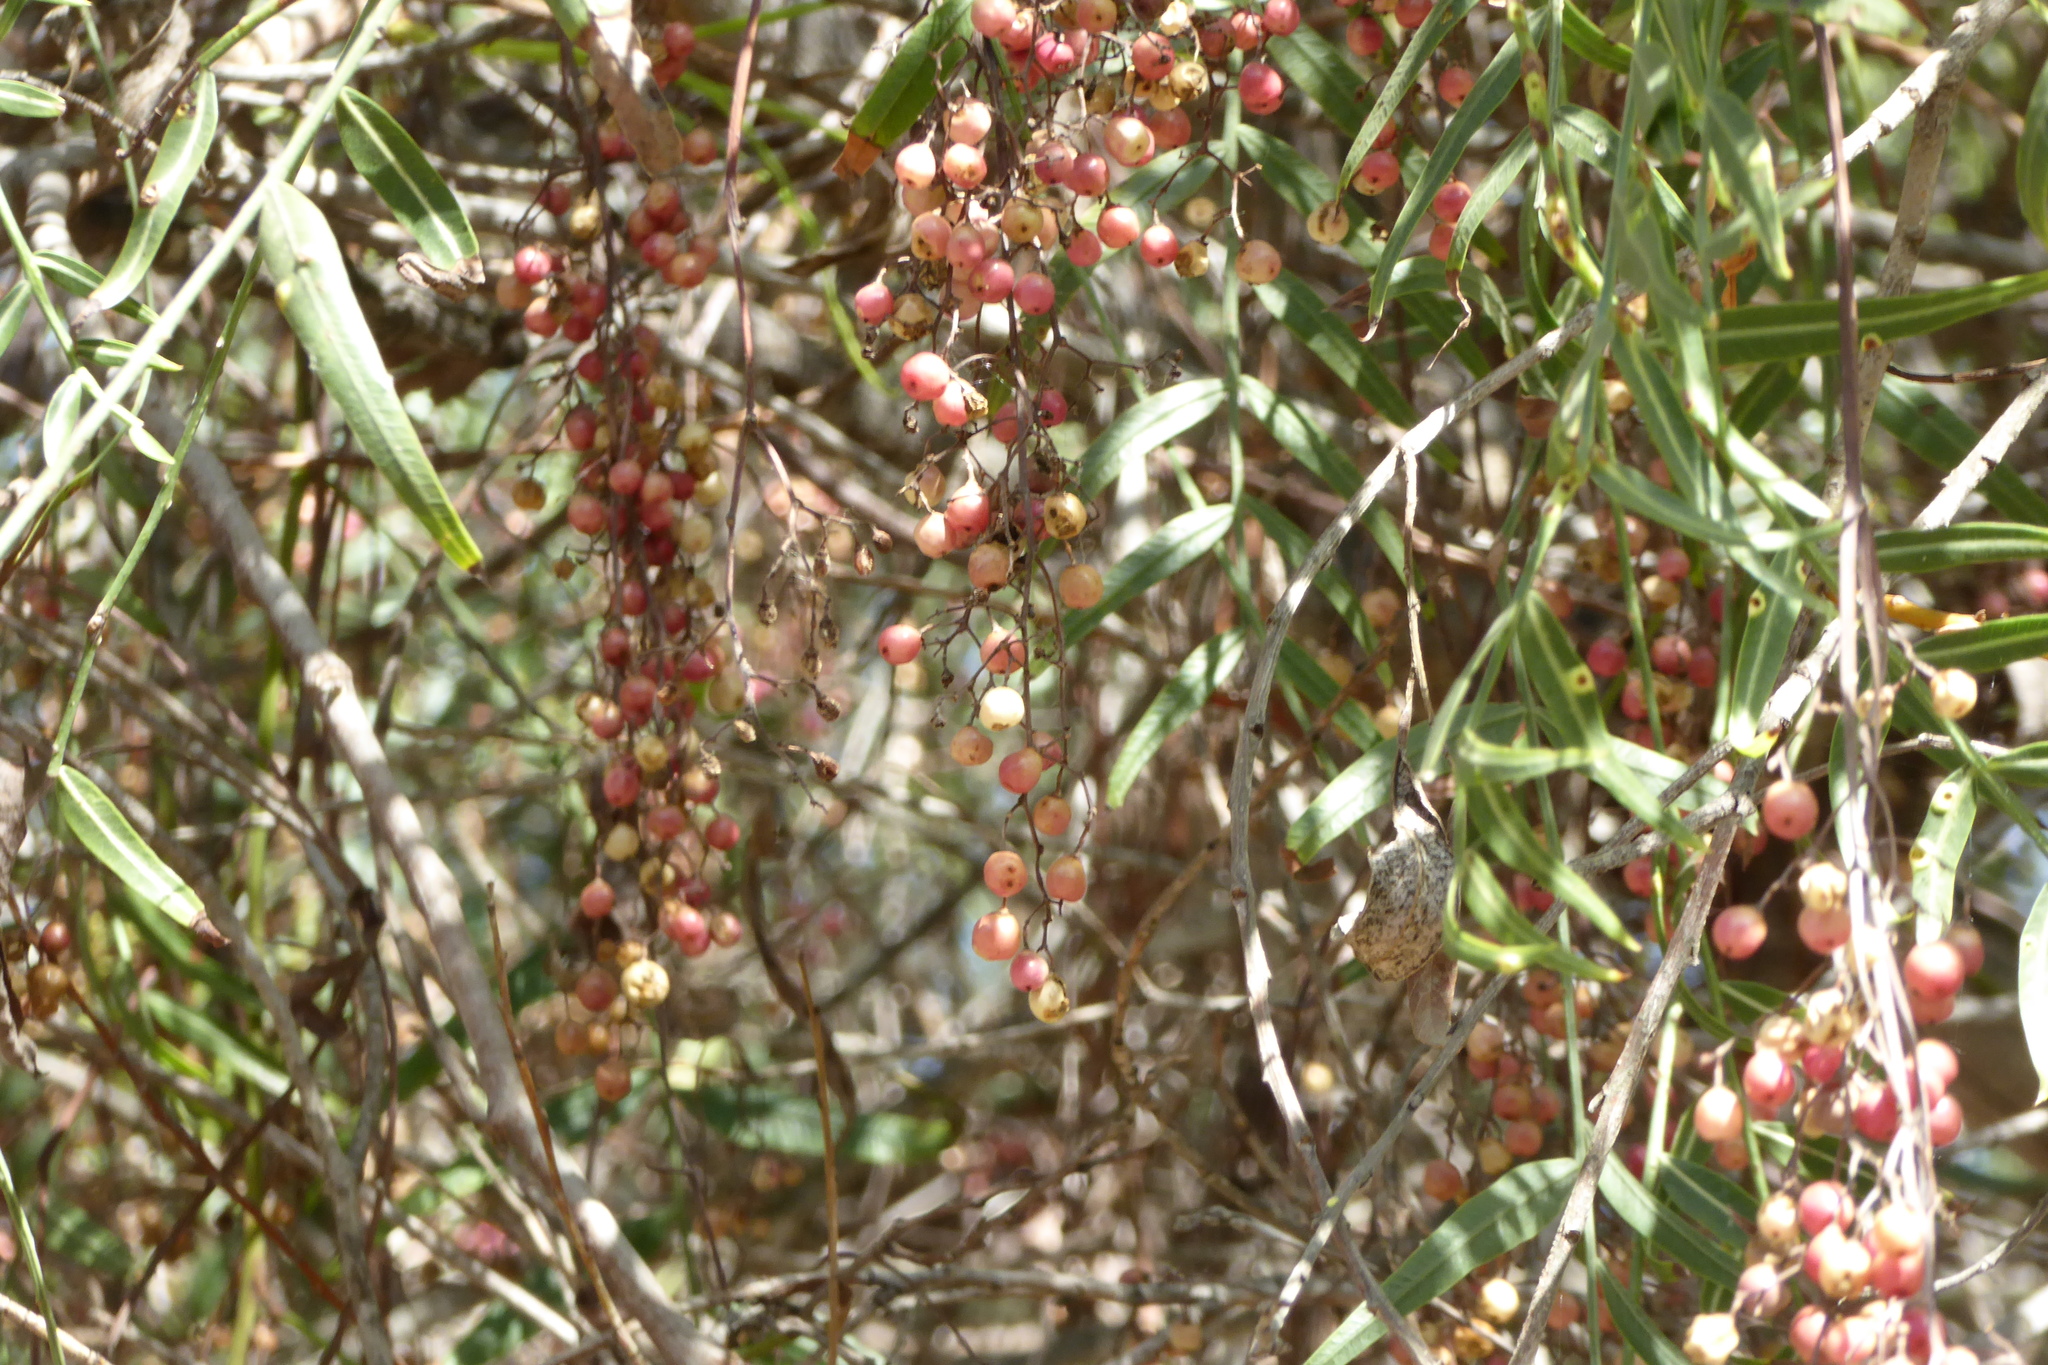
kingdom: Plantae
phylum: Tracheophyta
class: Magnoliopsida
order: Sapindales
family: Anacardiaceae
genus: Schinus
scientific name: Schinus molle
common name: Peruvian peppertree
